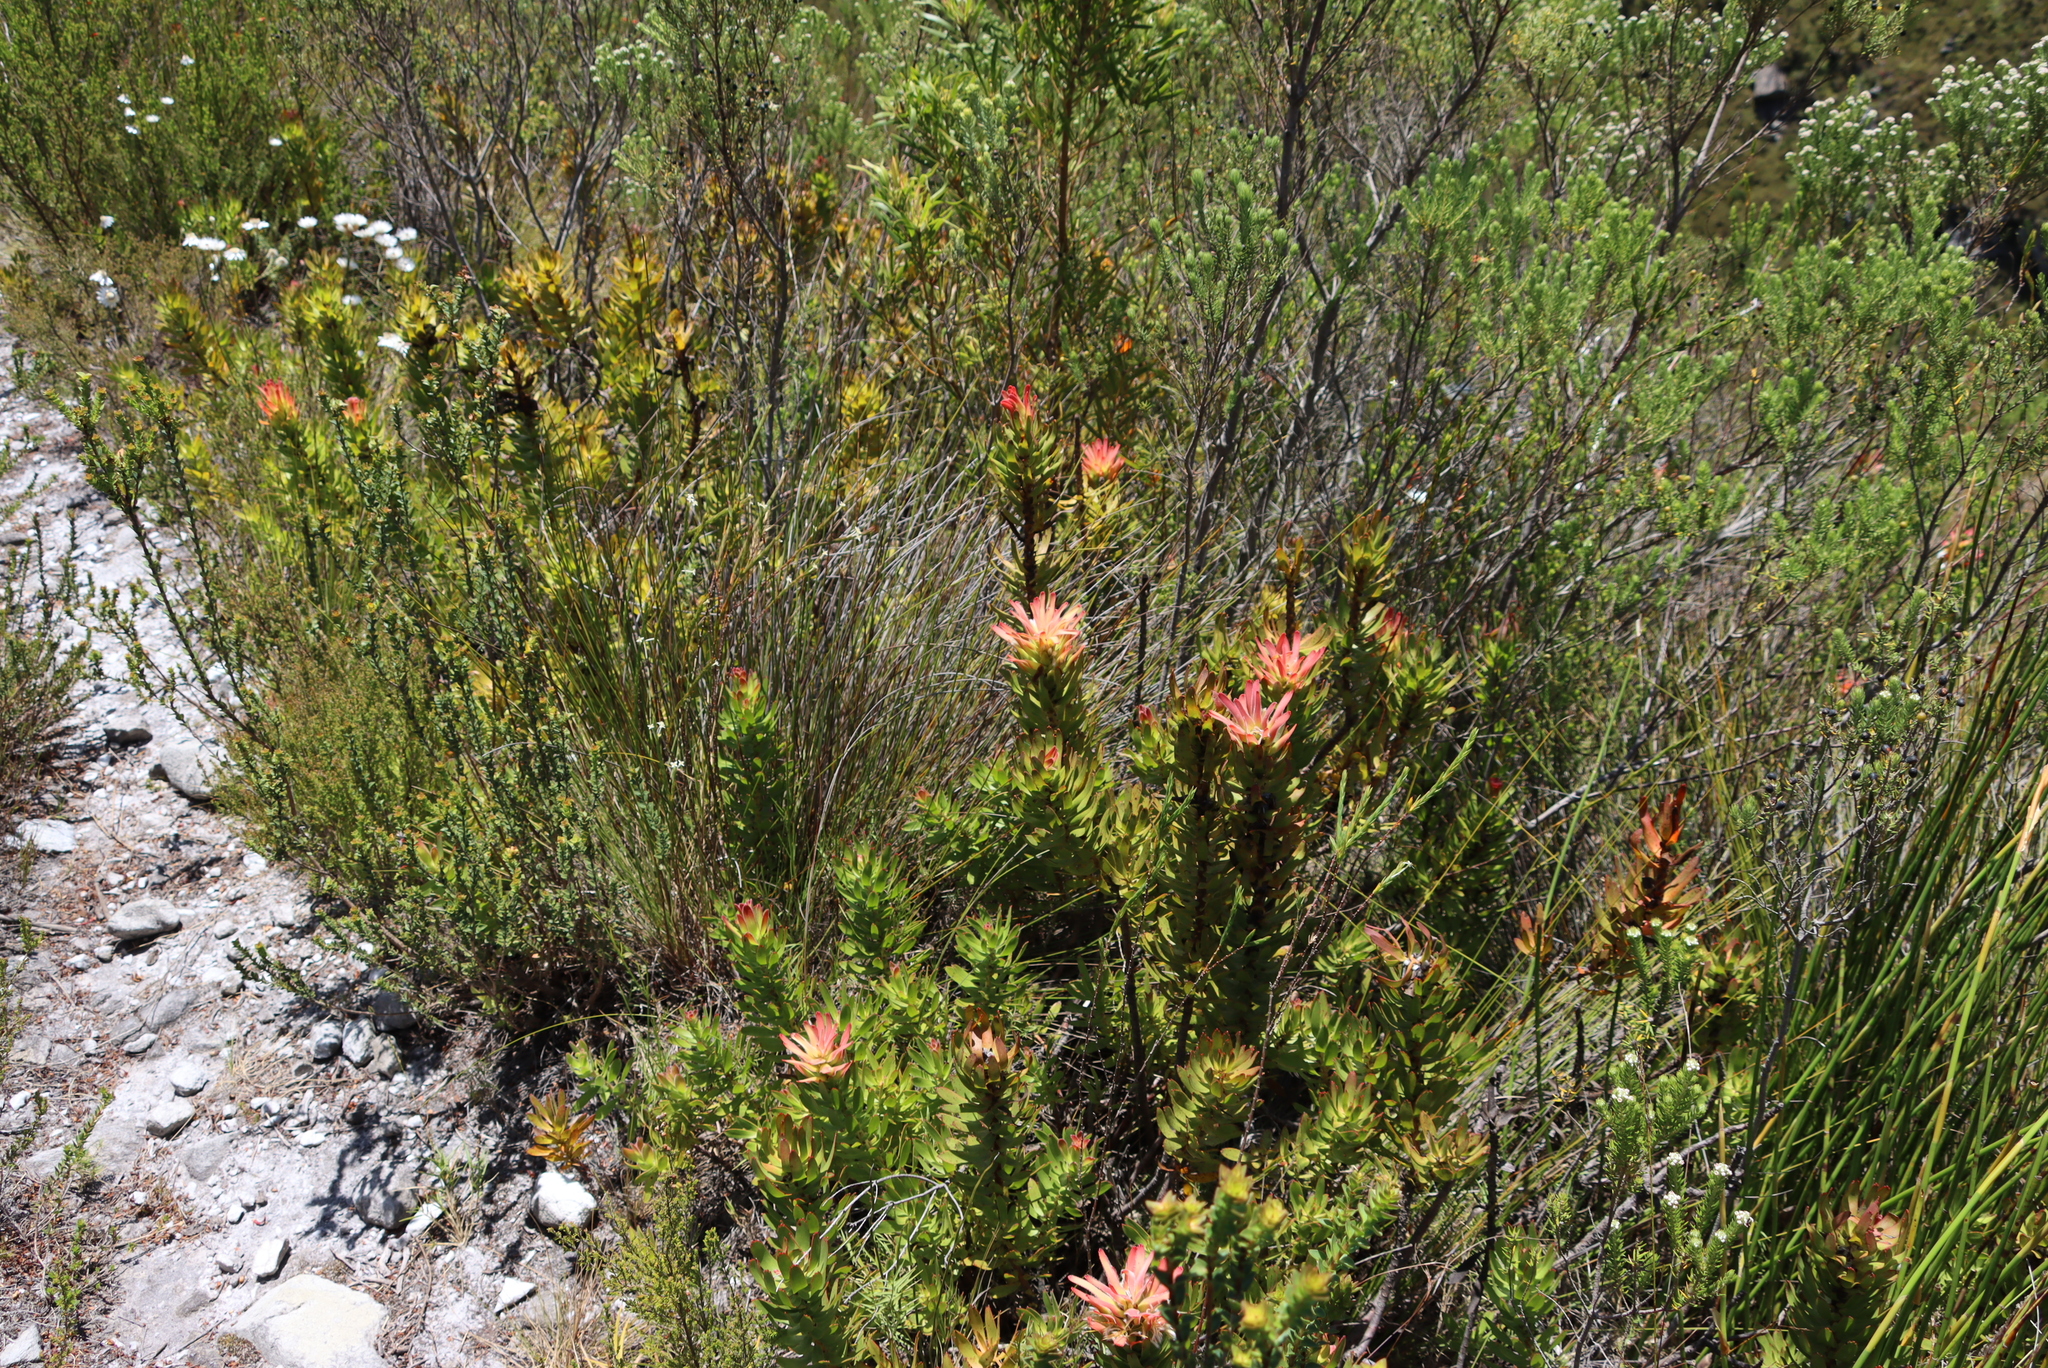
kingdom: Plantae
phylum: Tracheophyta
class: Magnoliopsida
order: Proteales
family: Proteaceae
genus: Mimetes
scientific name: Mimetes cucullatus
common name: Common pagoda
